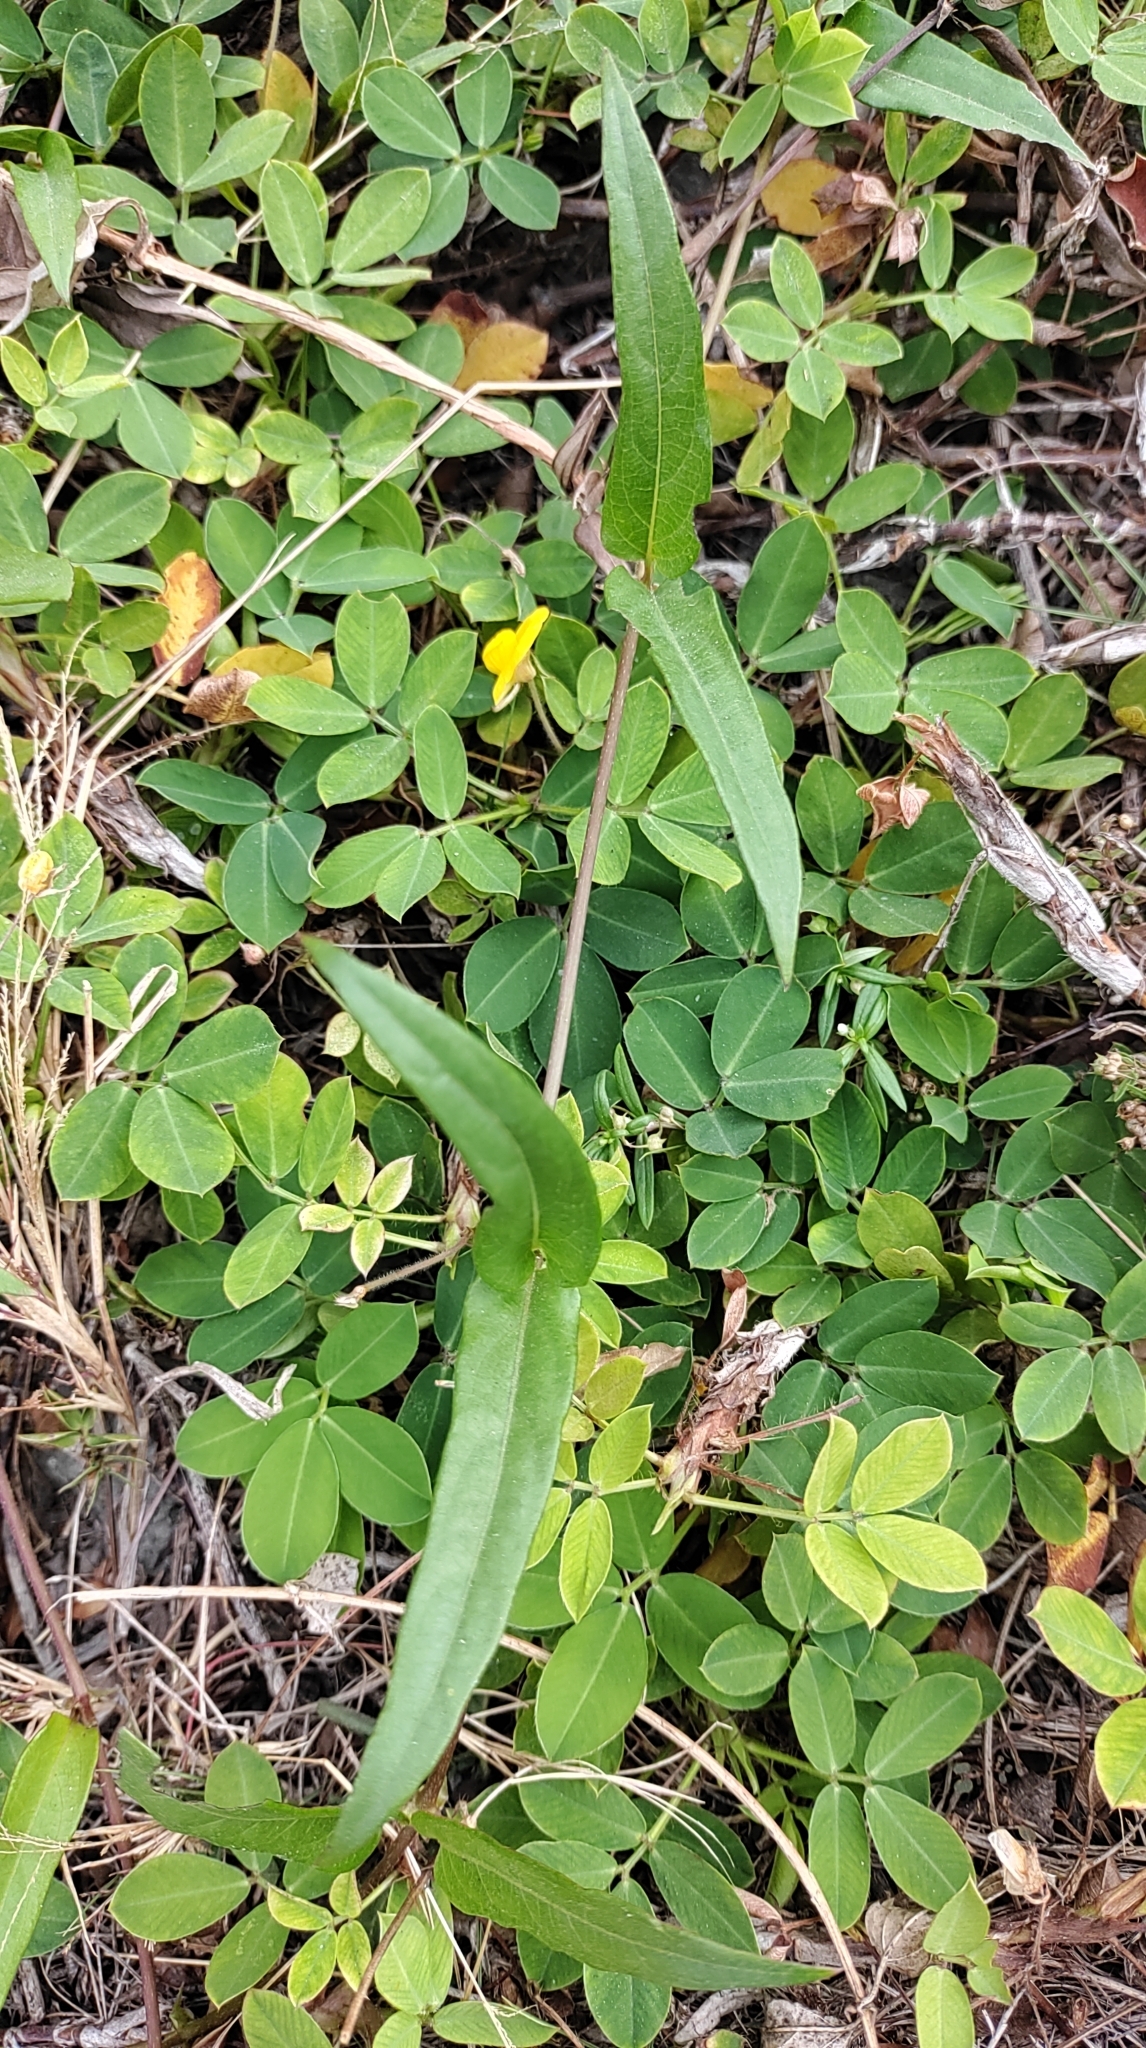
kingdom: Plantae
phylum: Tracheophyta
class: Magnoliopsida
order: Gentianales
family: Rubiaceae
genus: Paederia
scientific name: Paederia foetida
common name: Stinkvine
